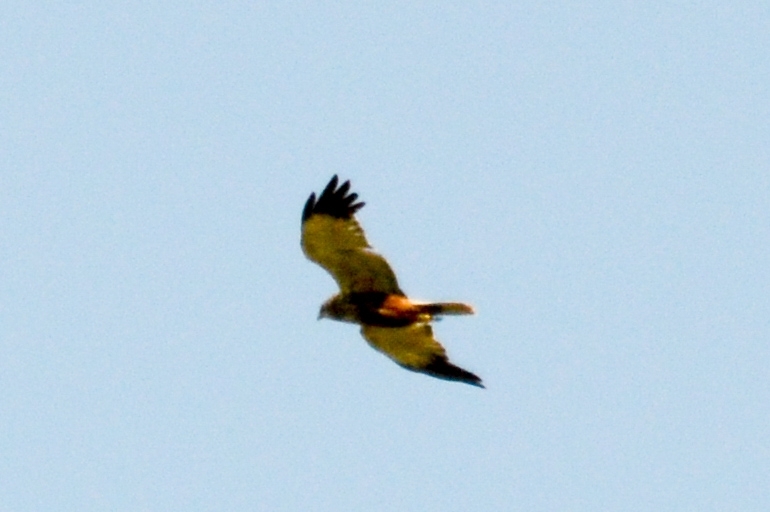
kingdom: Animalia
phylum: Chordata
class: Aves
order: Accipitriformes
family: Accipitridae
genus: Circus
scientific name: Circus aeruginosus
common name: Western marsh harrier
